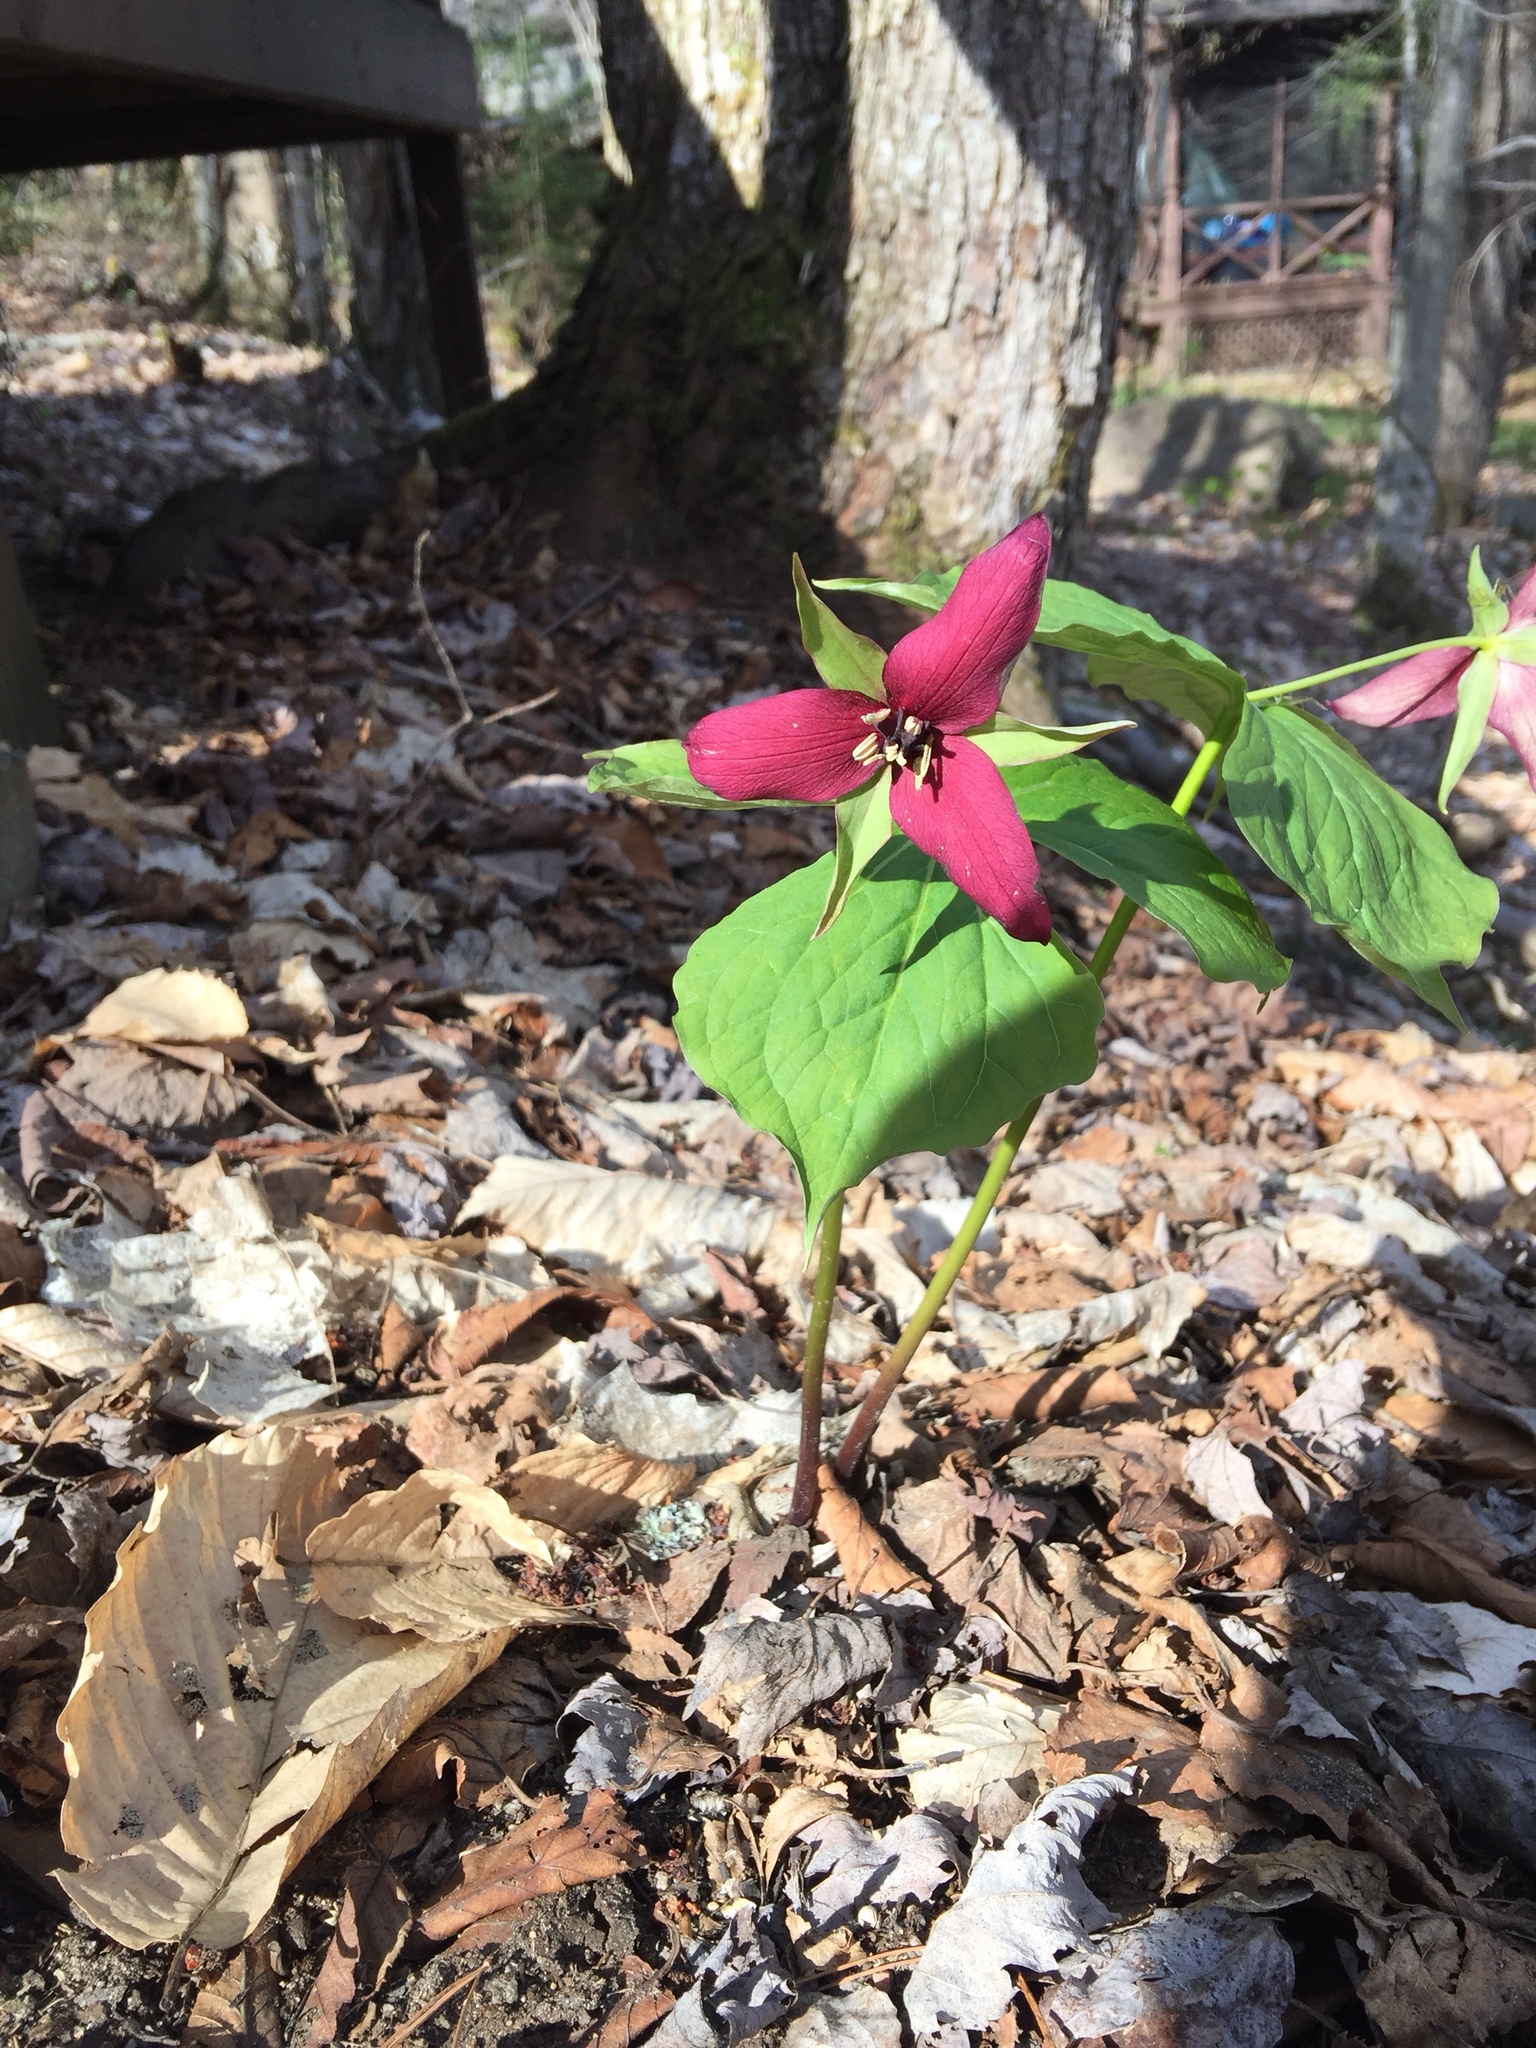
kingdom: Plantae
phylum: Tracheophyta
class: Liliopsida
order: Liliales
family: Melanthiaceae
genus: Trillium
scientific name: Trillium erectum
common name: Purple trillium
